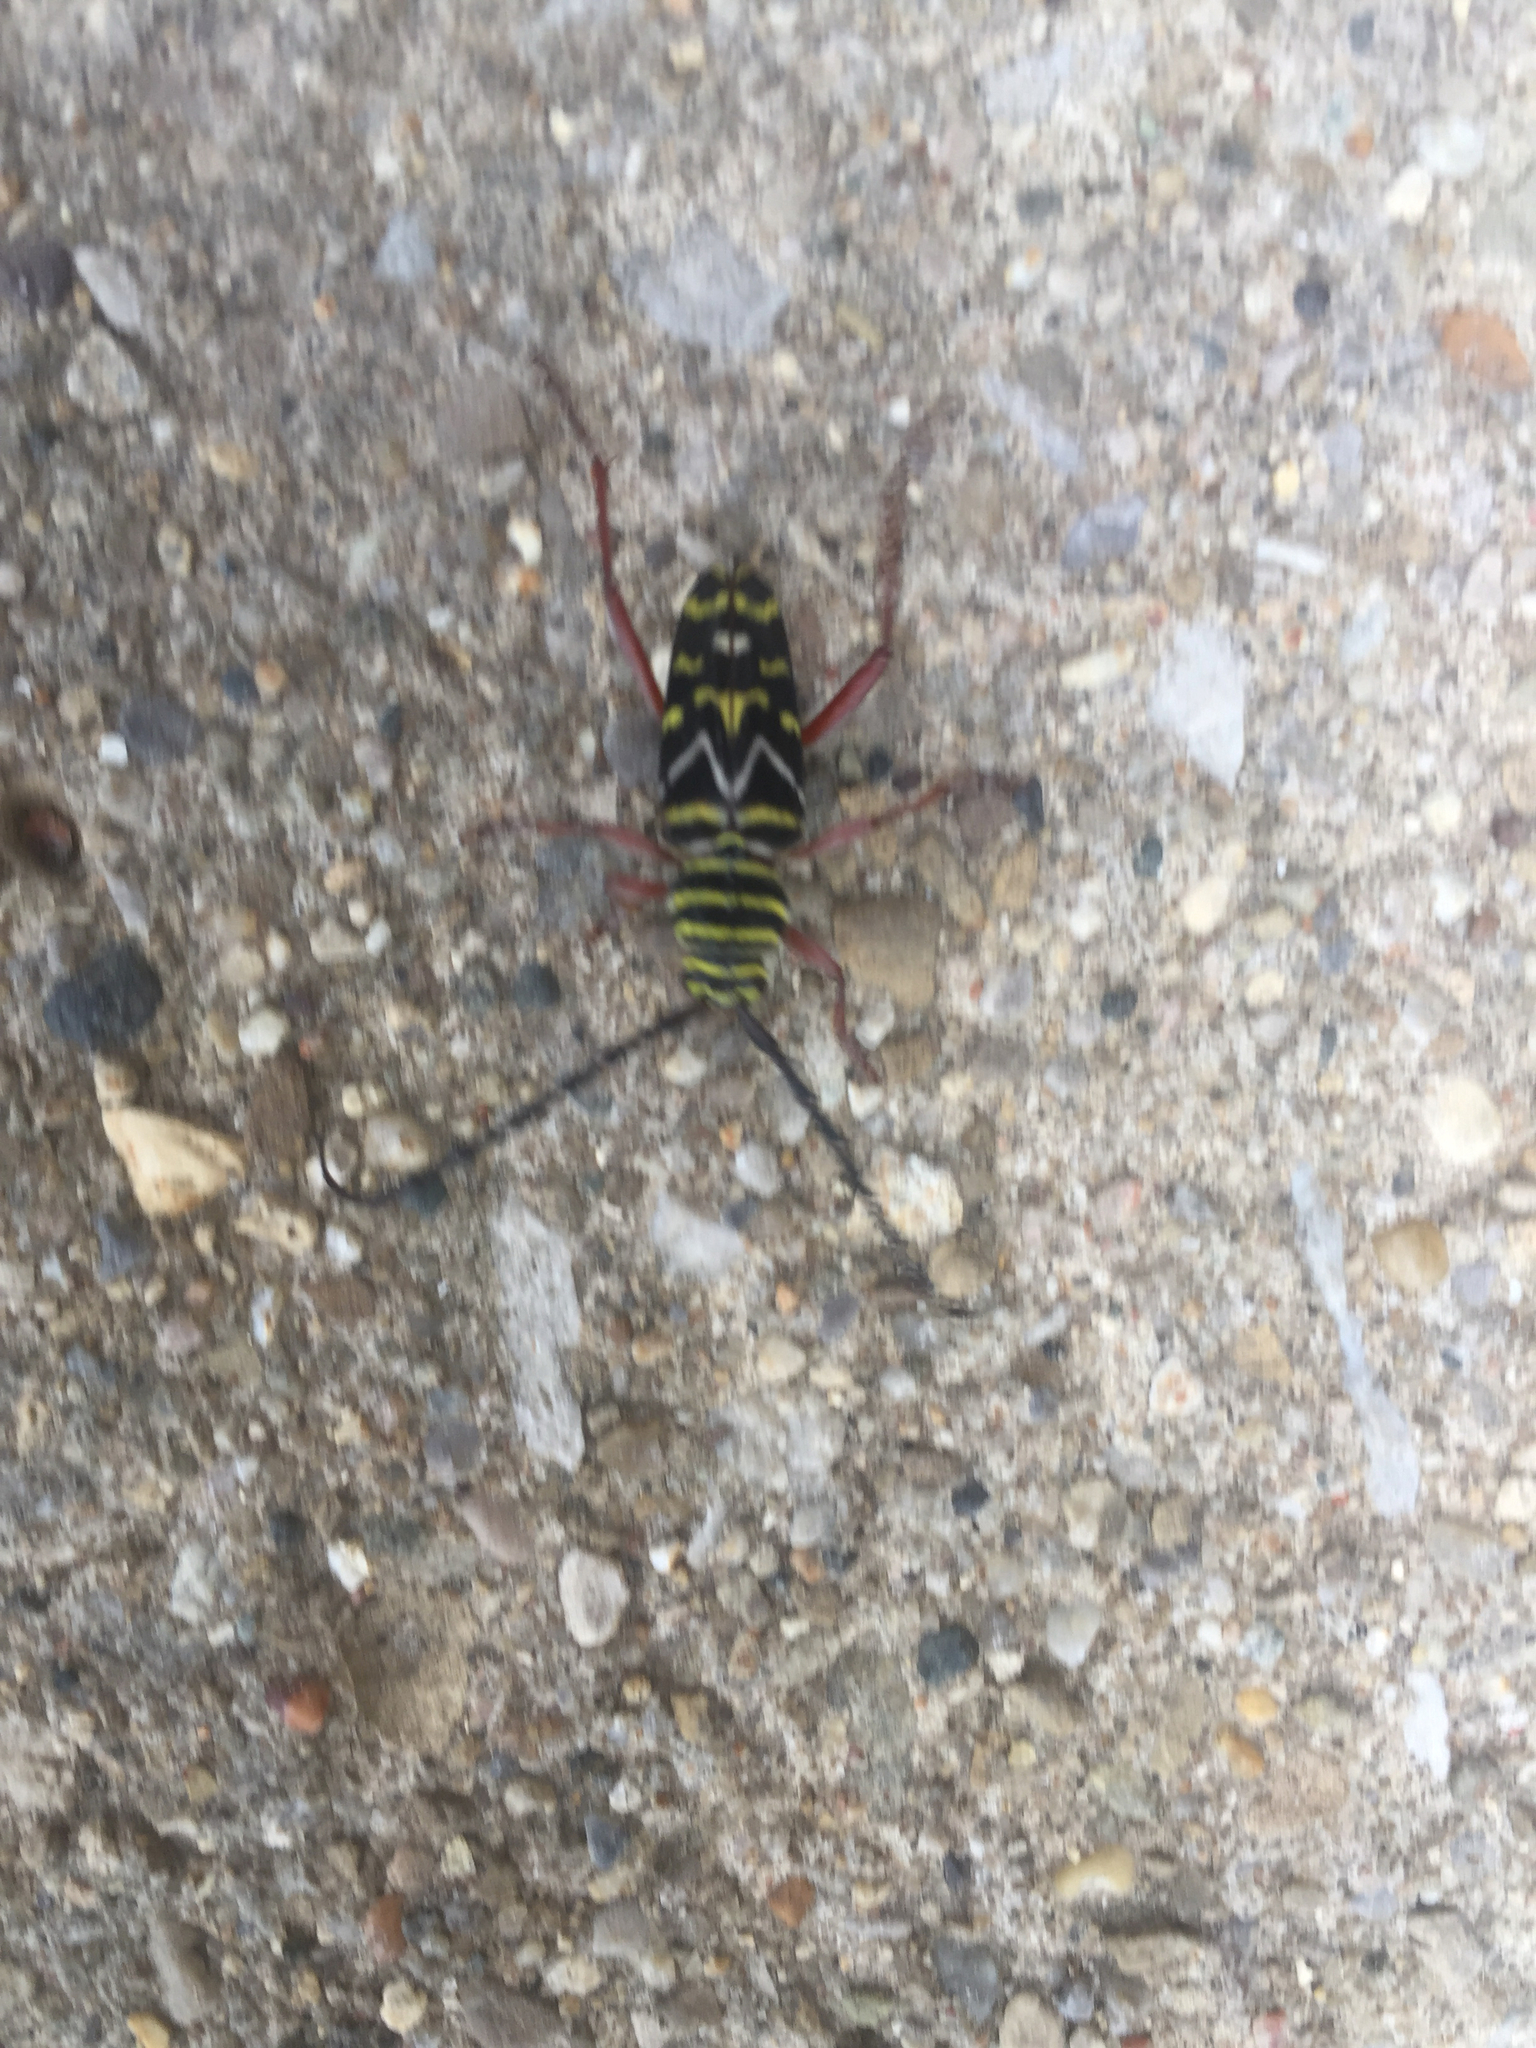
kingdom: Animalia
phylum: Arthropoda
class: Insecta
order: Coleoptera
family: Cerambycidae
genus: Megacyllene
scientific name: Megacyllene caryae
